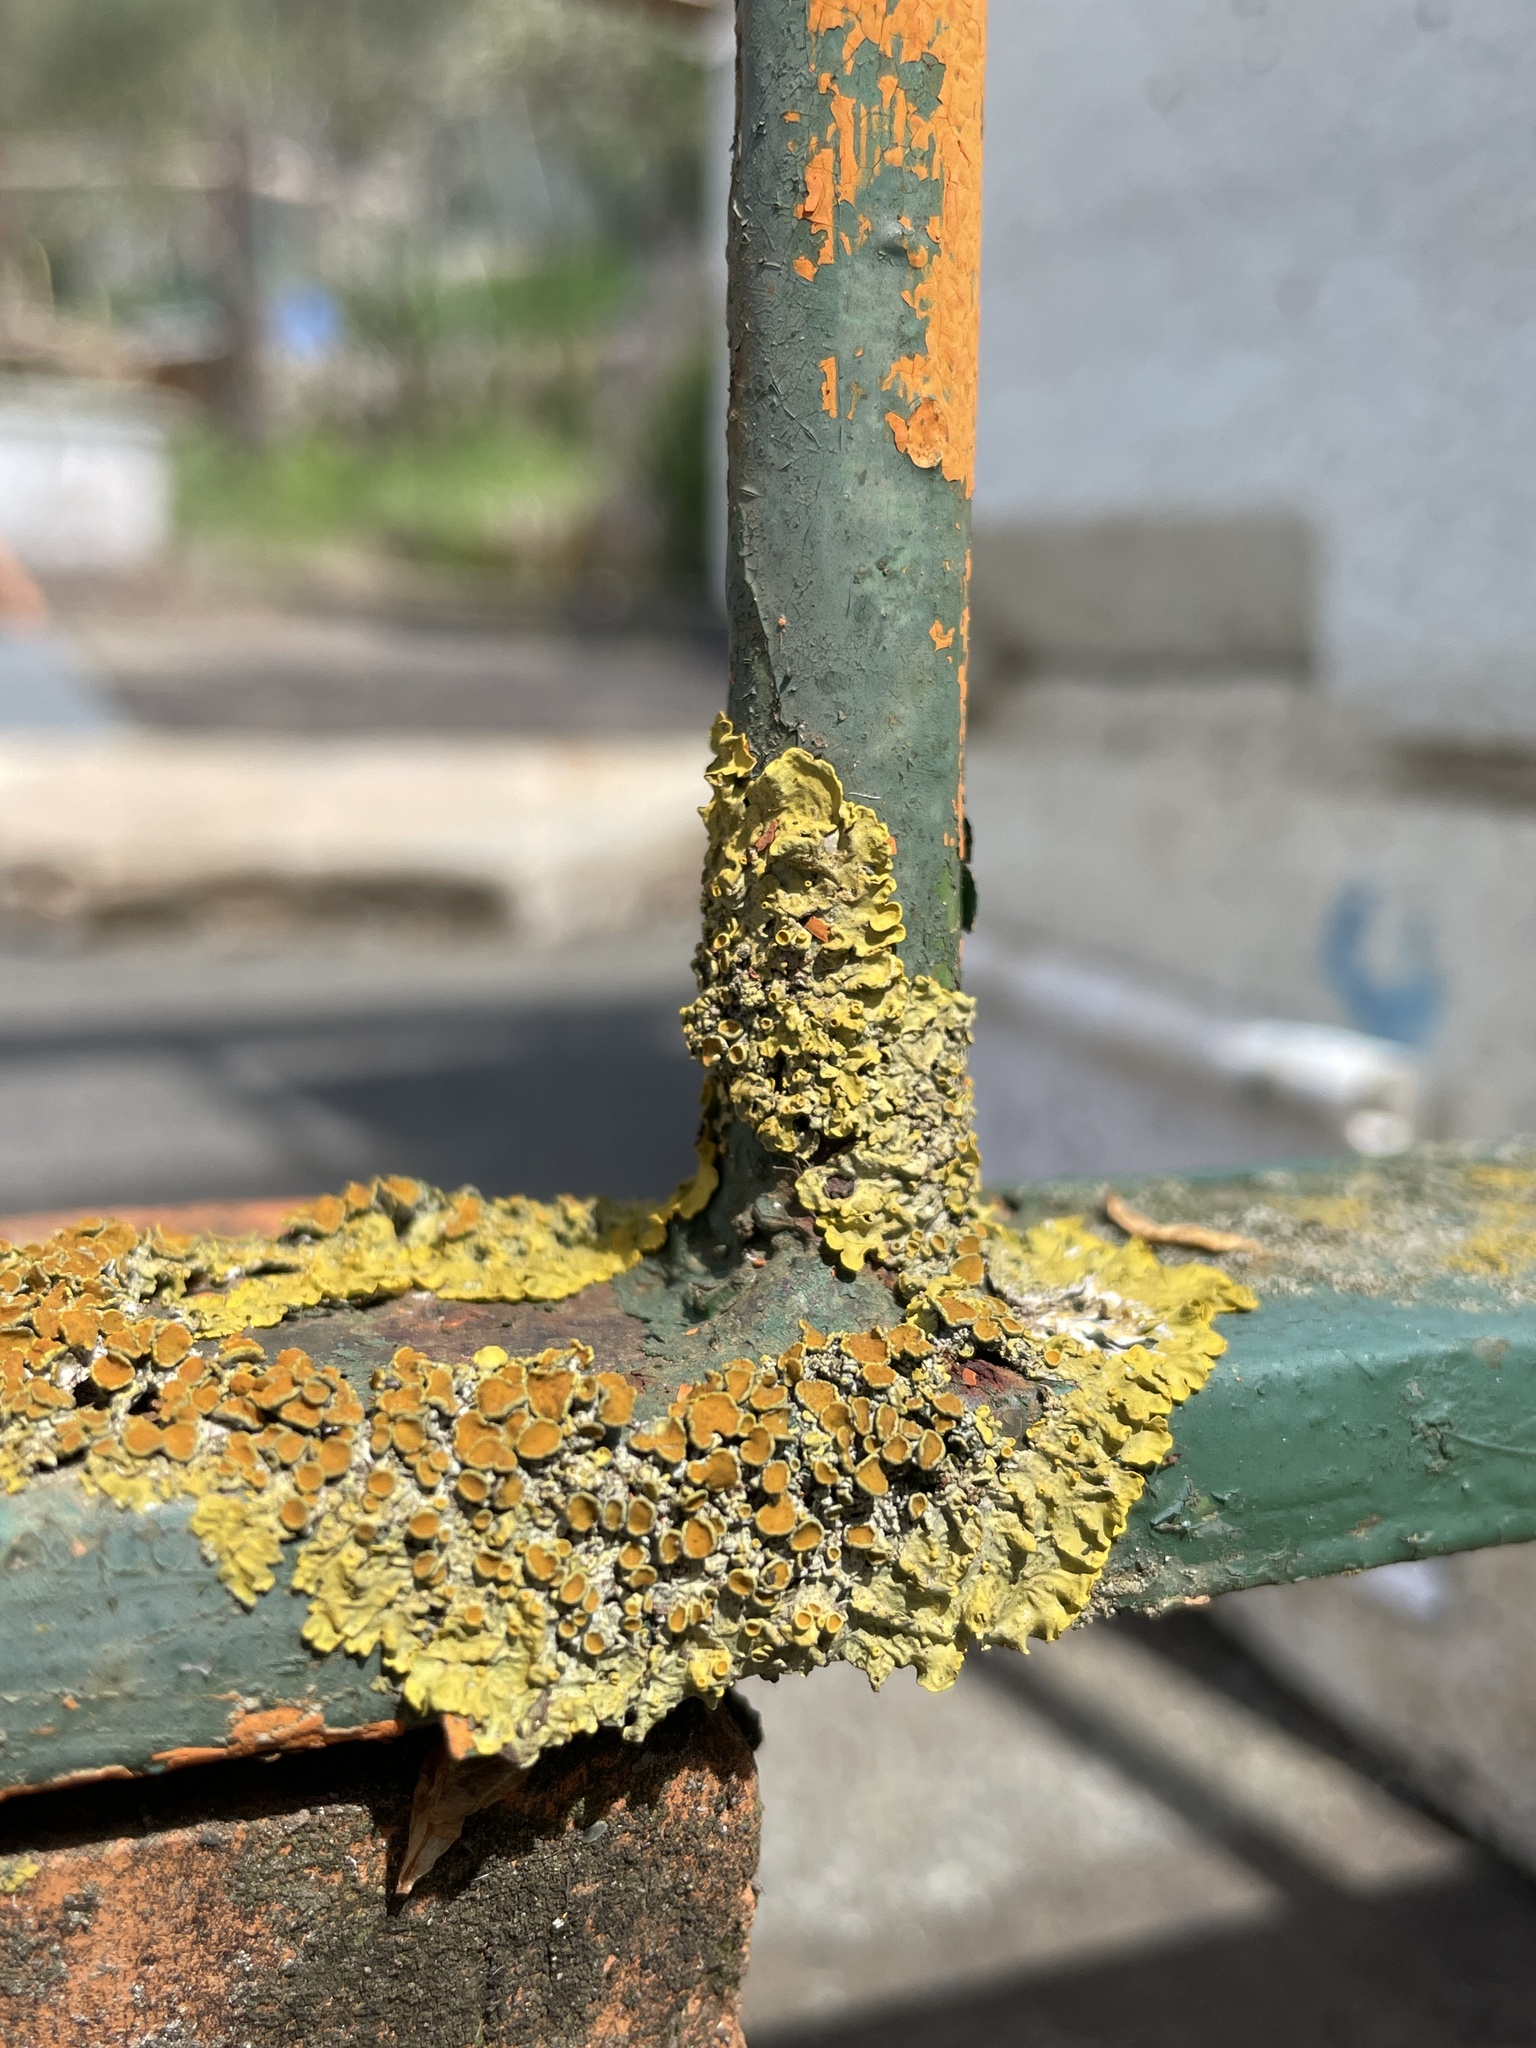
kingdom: Fungi
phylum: Ascomycota
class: Lecanoromycetes
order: Teloschistales
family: Teloschistaceae
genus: Xanthoria
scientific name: Xanthoria parietina
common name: Common orange lichen
